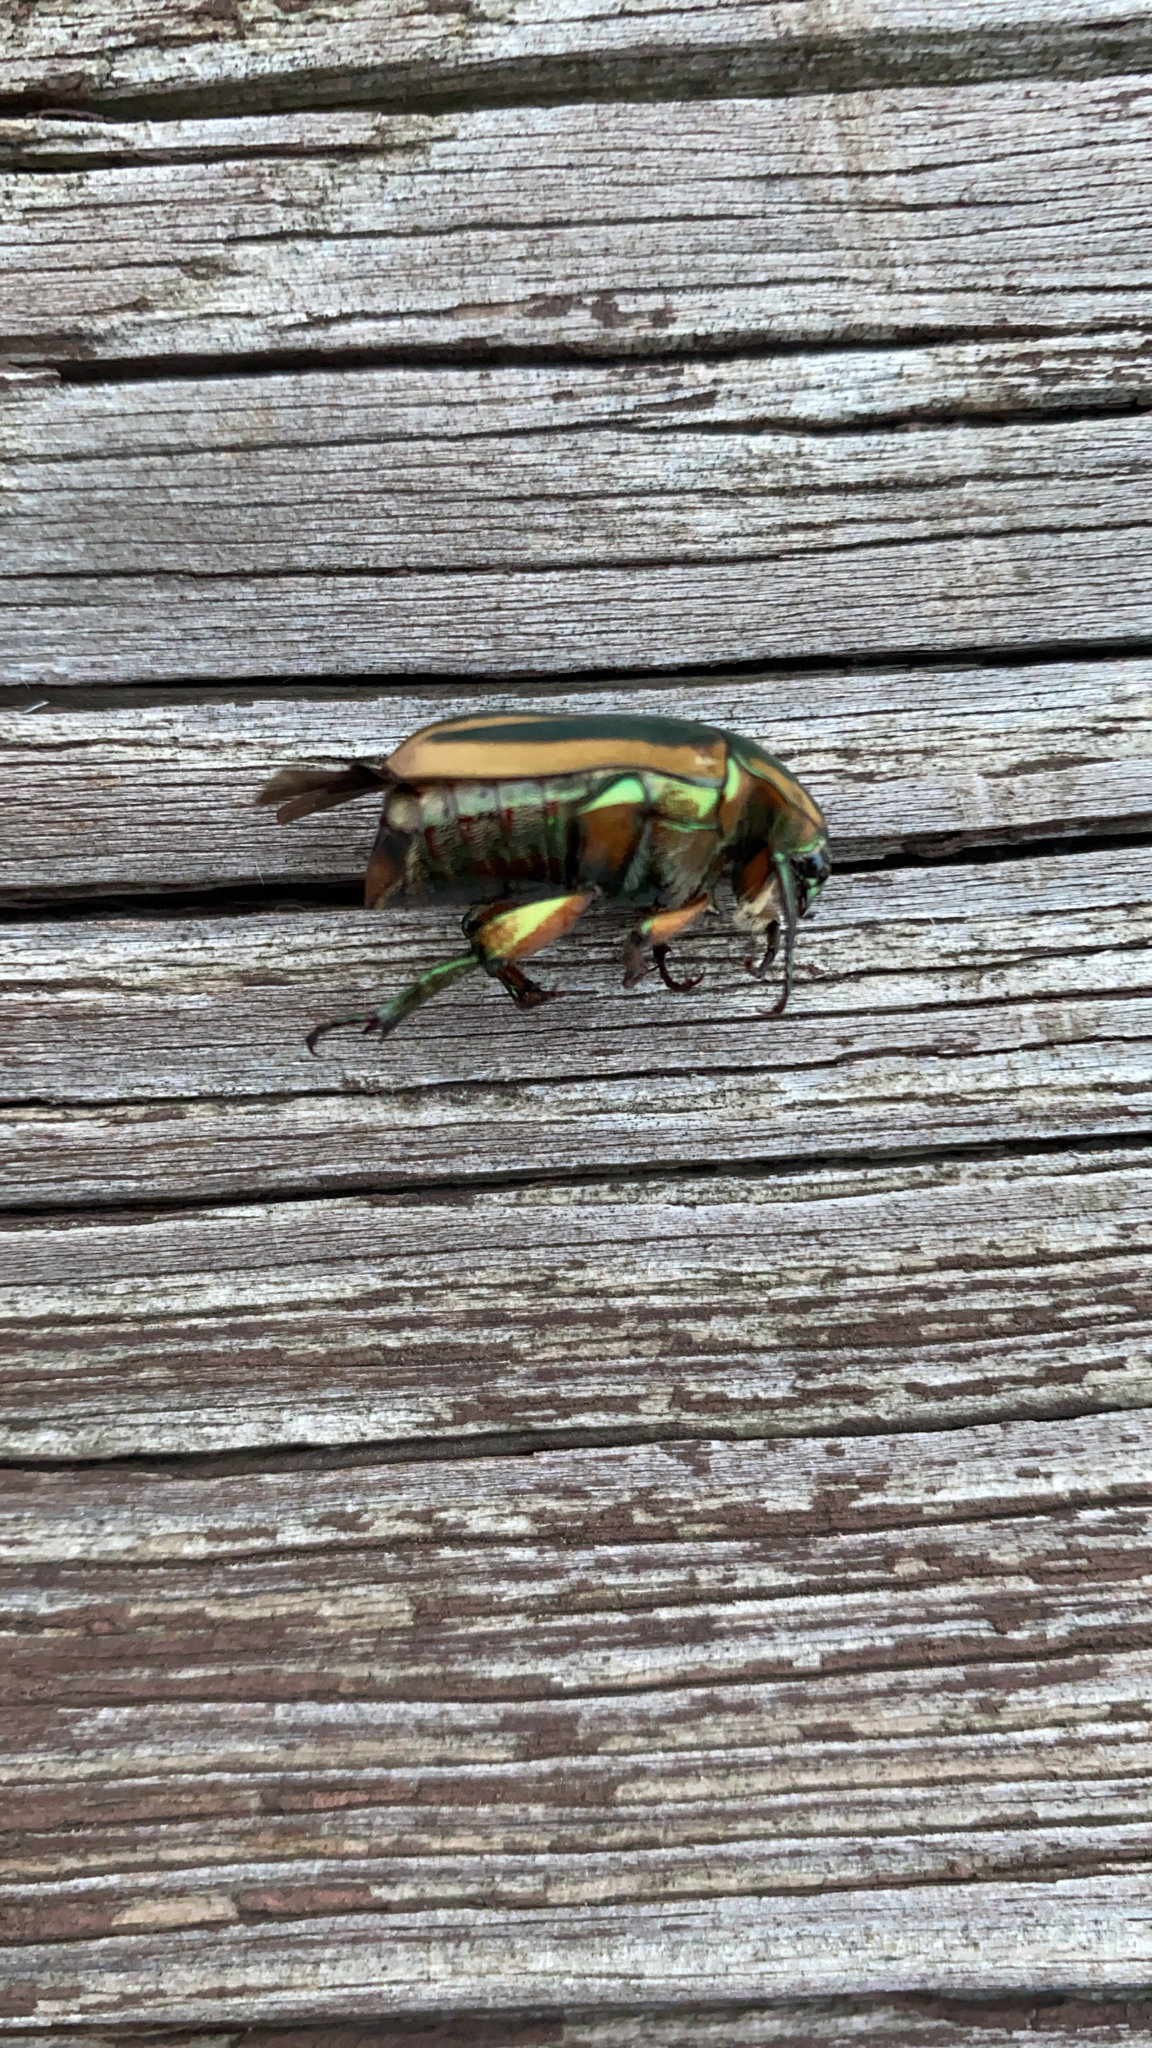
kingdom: Animalia
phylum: Arthropoda
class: Insecta
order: Coleoptera
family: Scarabaeidae
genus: Cotinis
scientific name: Cotinis nitida
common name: Common green june beetle
